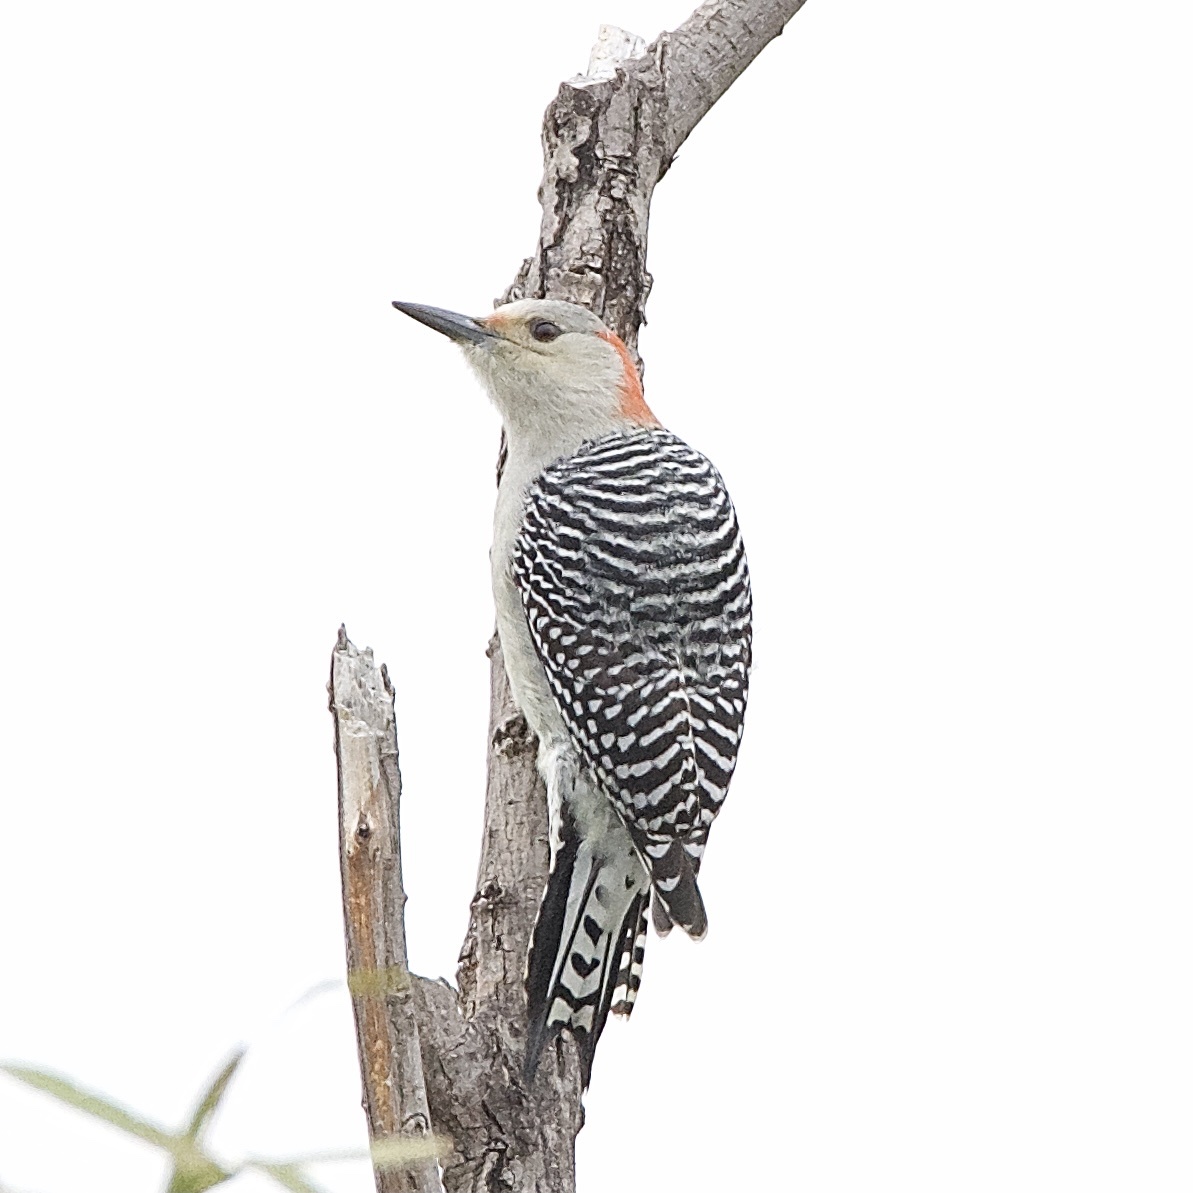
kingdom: Animalia
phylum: Chordata
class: Aves
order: Piciformes
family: Picidae
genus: Melanerpes
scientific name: Melanerpes carolinus
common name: Red-bellied woodpecker
